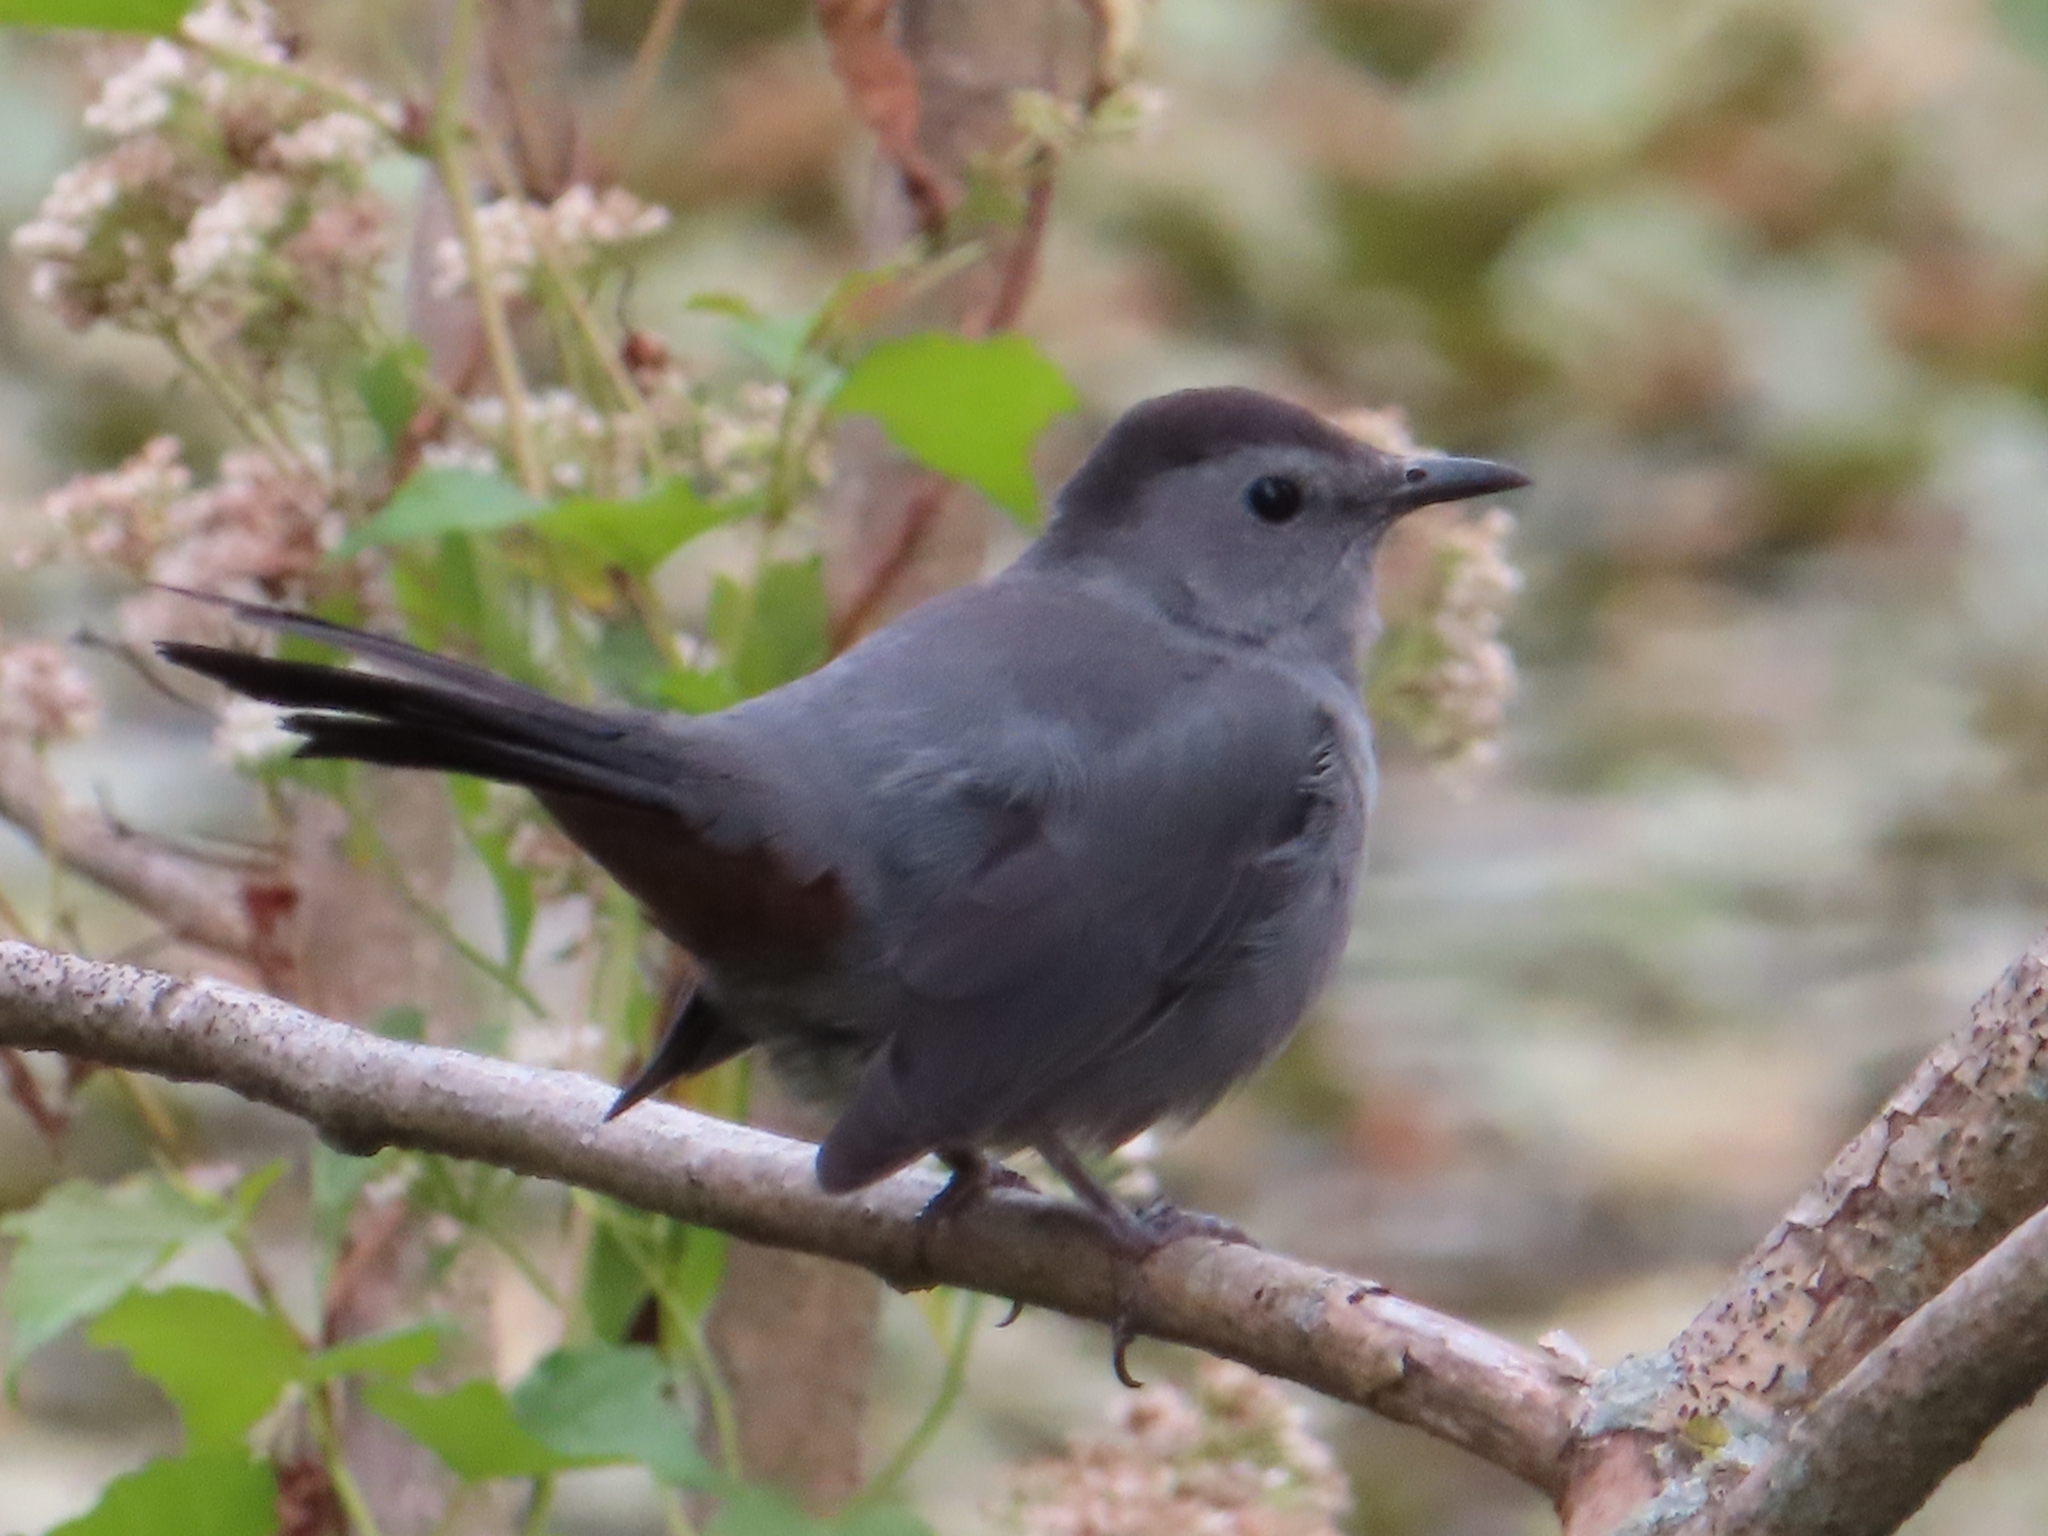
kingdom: Animalia
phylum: Chordata
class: Aves
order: Passeriformes
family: Mimidae
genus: Dumetella
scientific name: Dumetella carolinensis
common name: Gray catbird
